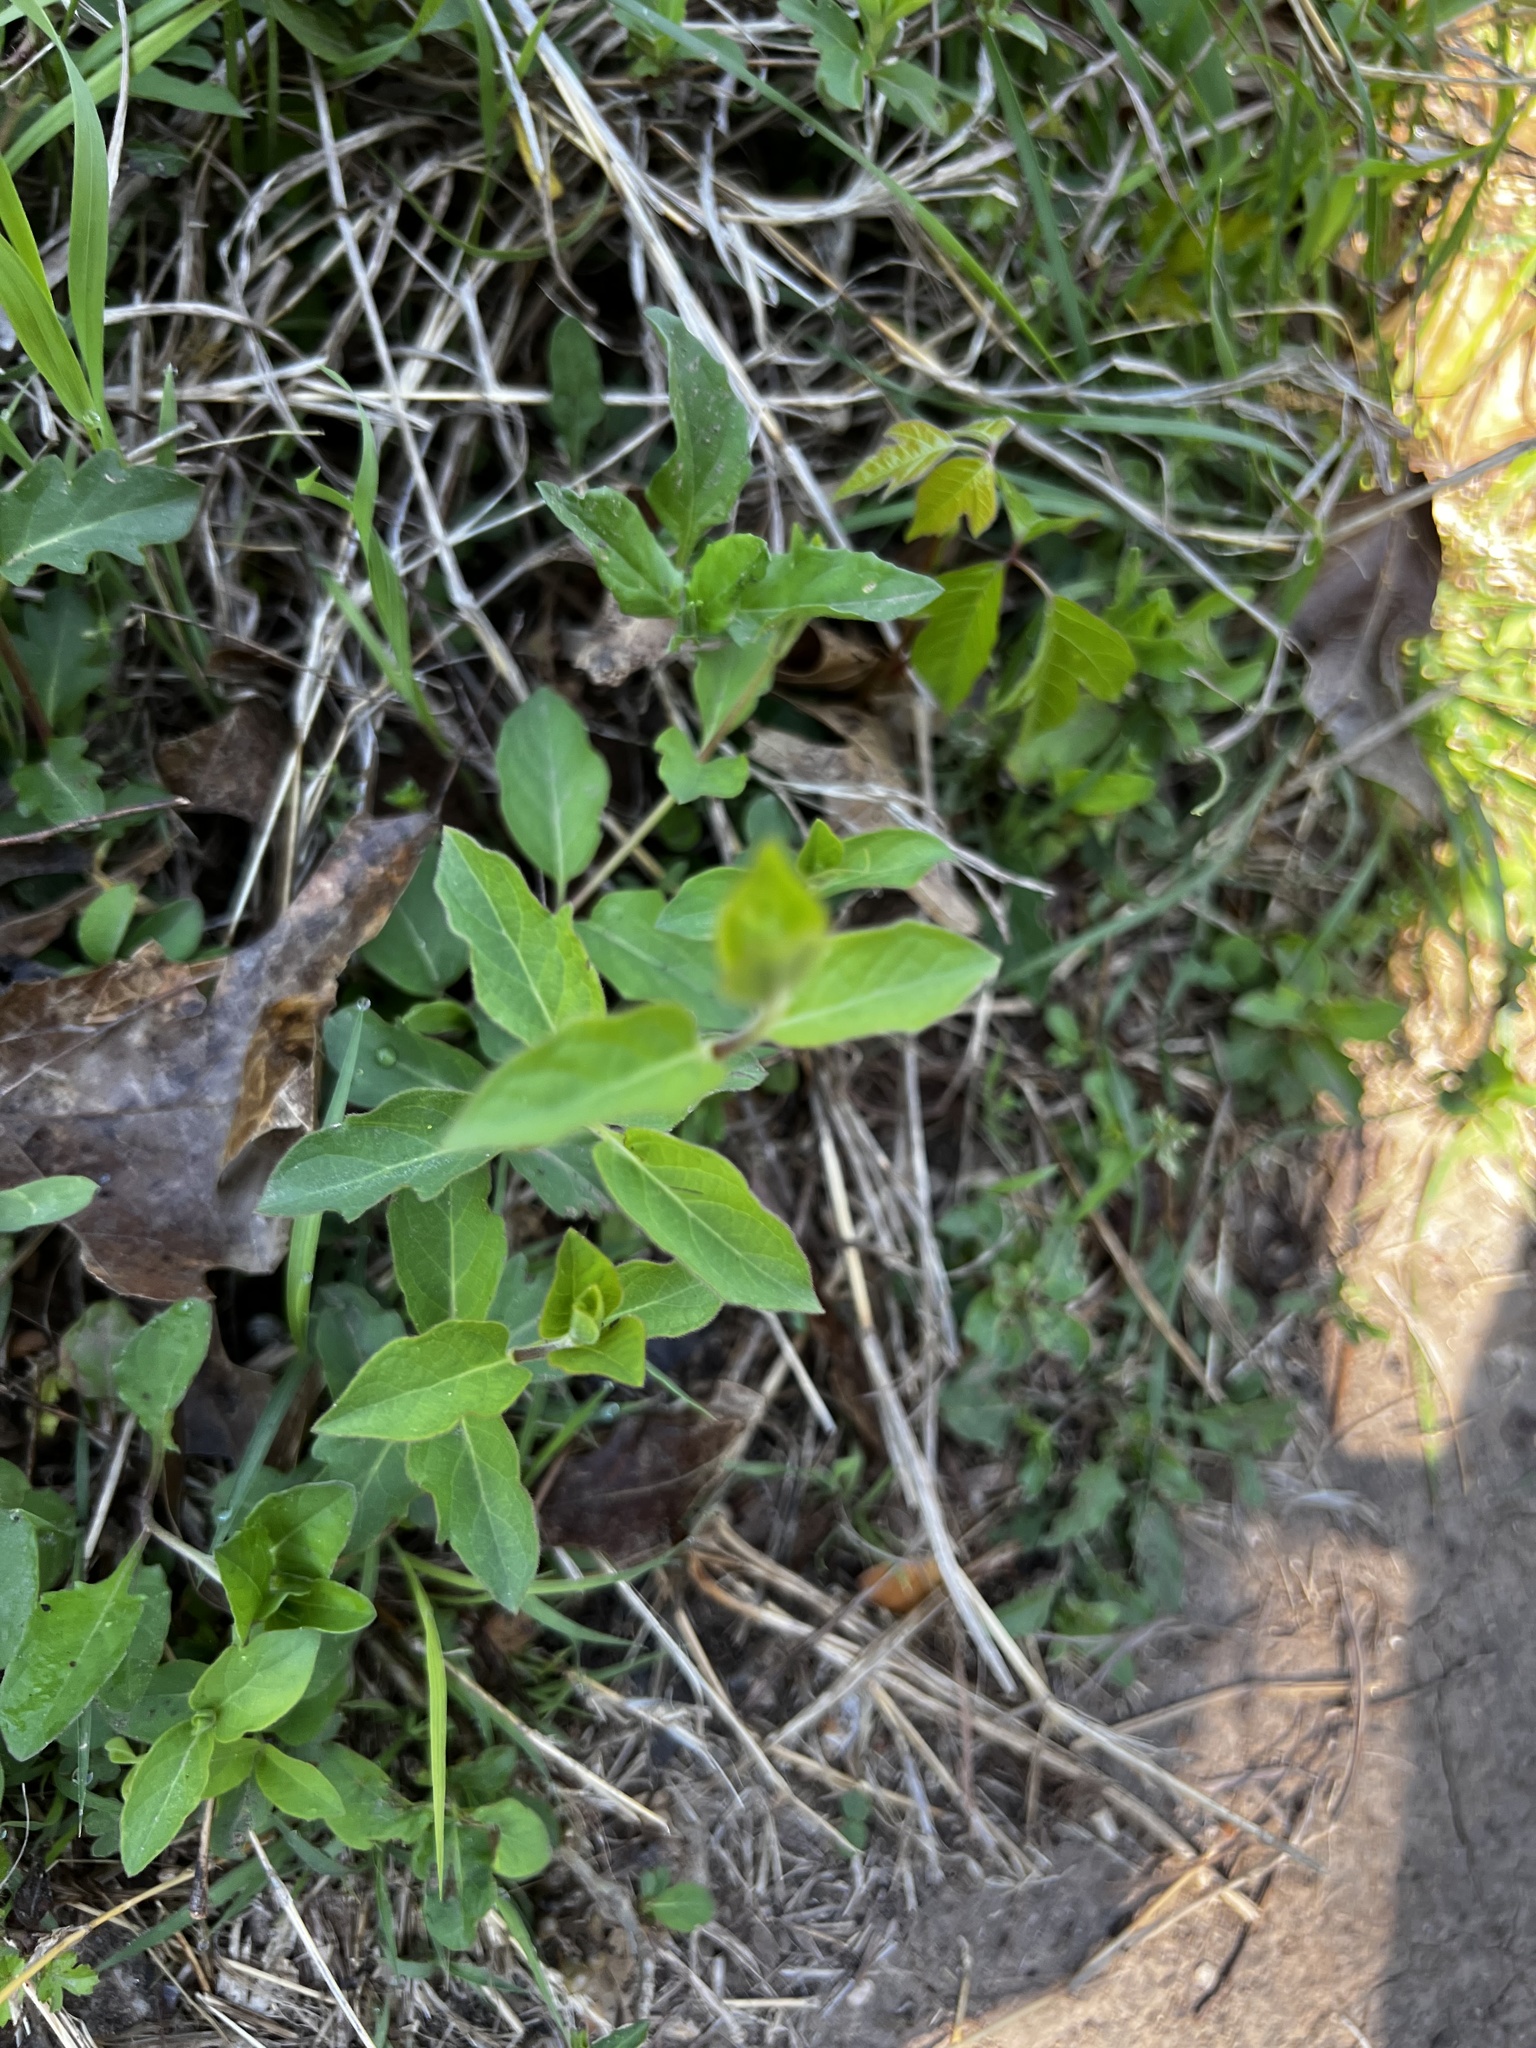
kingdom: Plantae
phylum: Tracheophyta
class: Magnoliopsida
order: Dipsacales
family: Caprifoliaceae
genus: Lonicera
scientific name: Lonicera japonica
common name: Japanese honeysuckle
